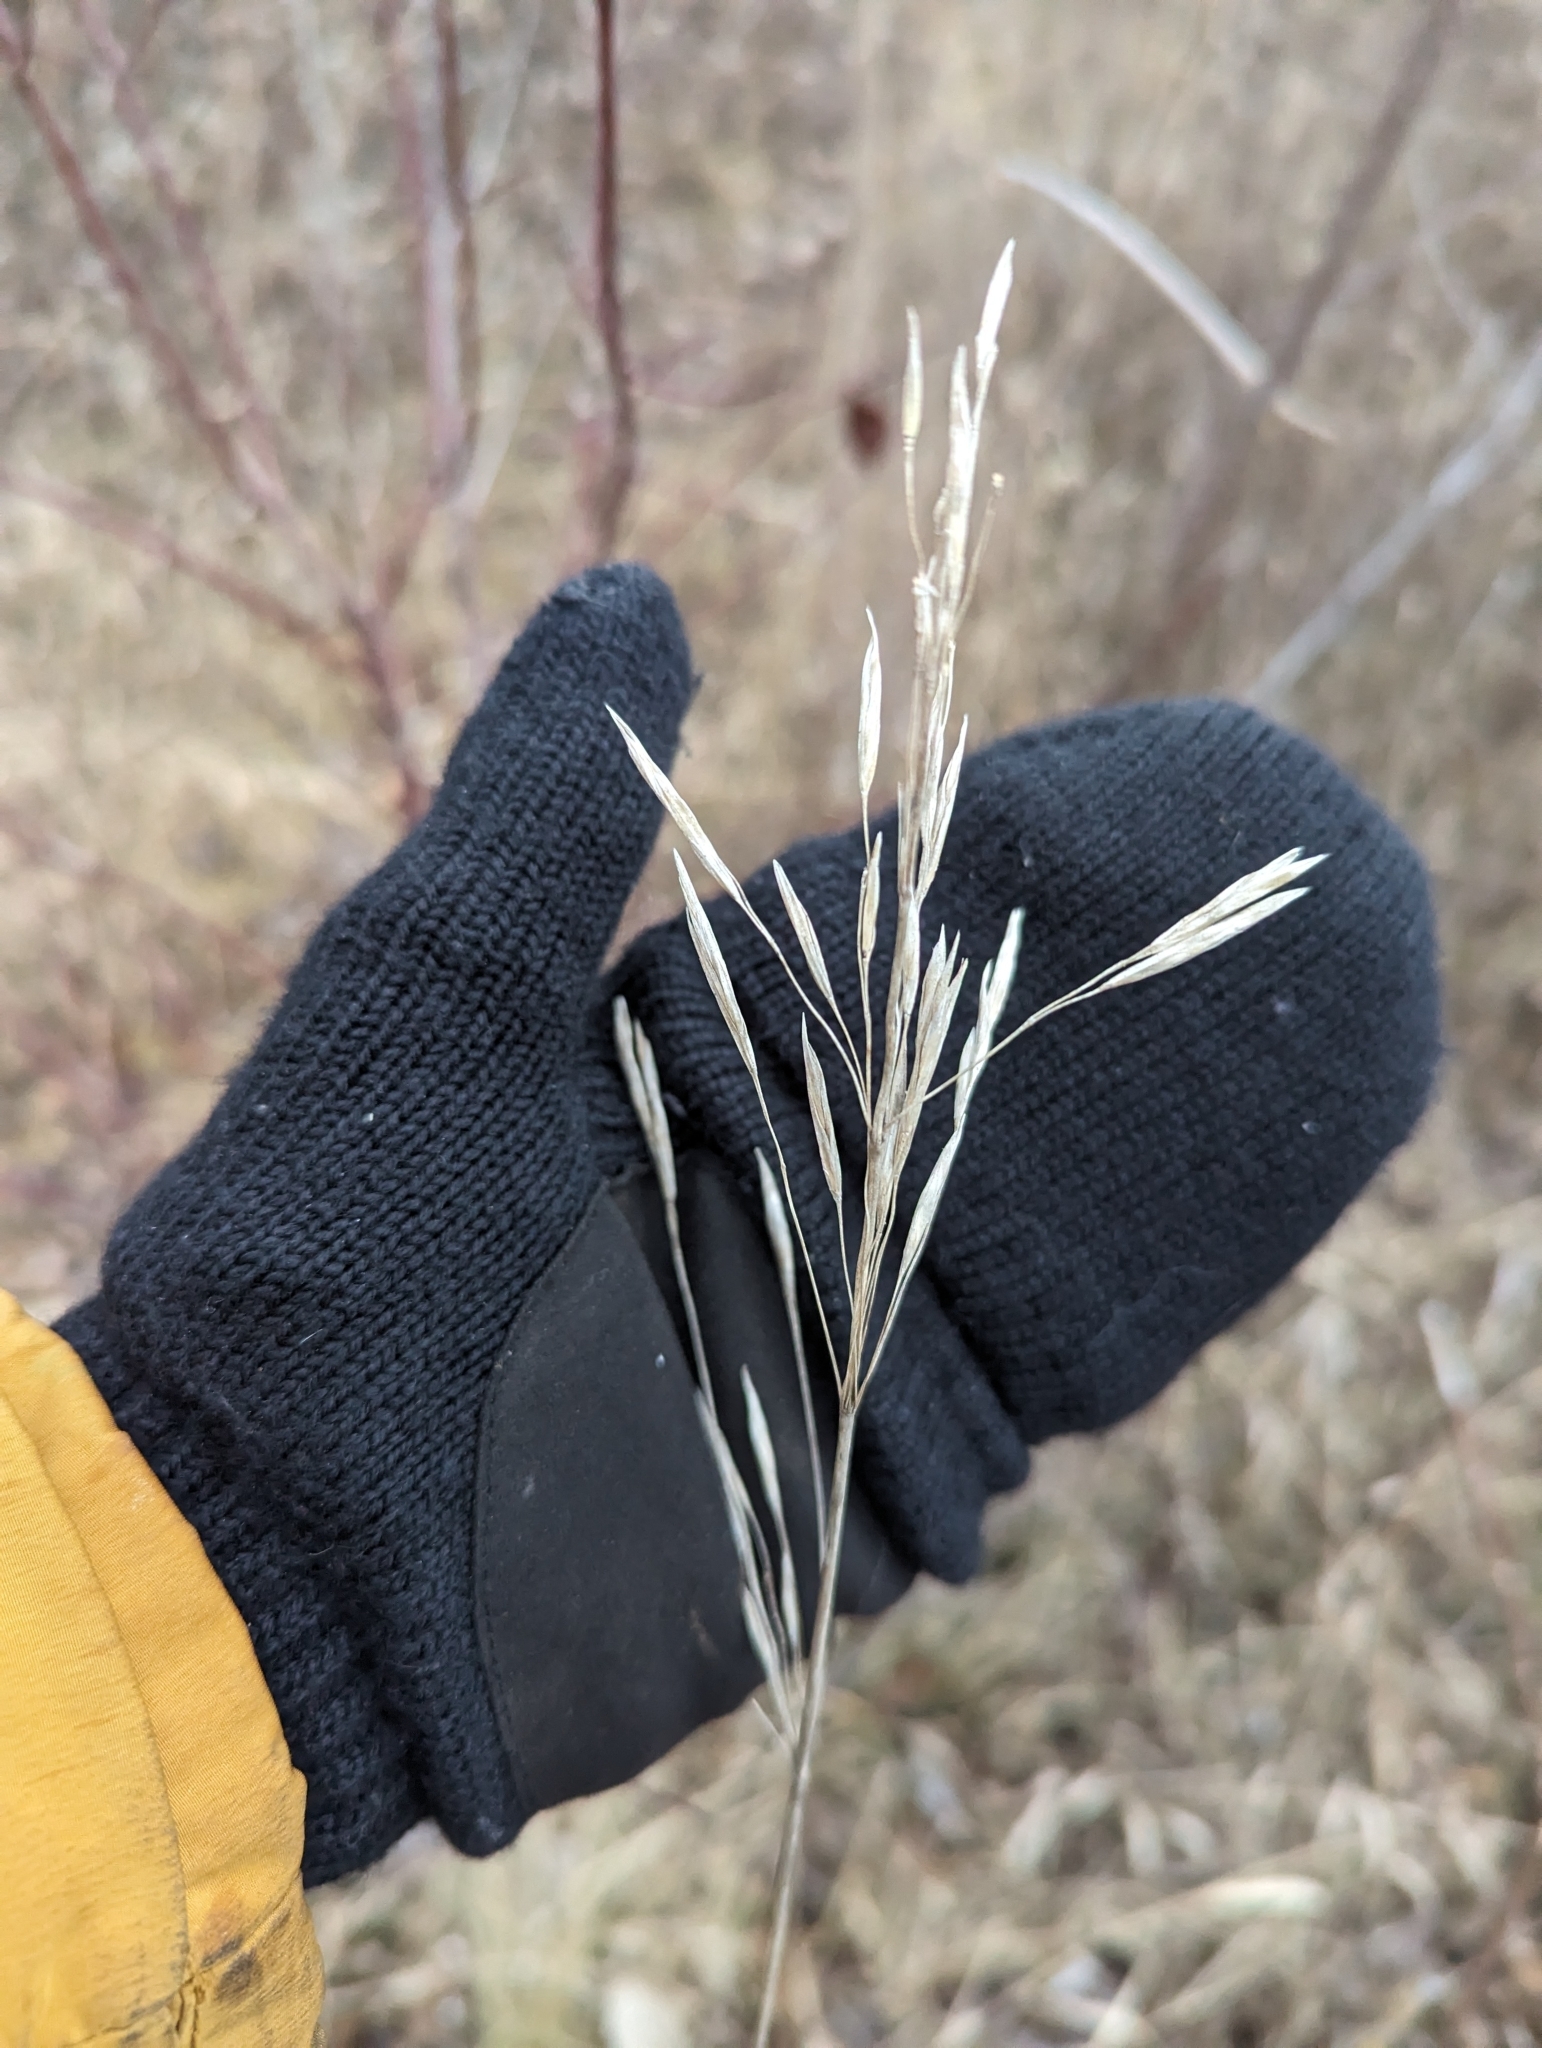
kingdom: Plantae
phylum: Tracheophyta
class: Liliopsida
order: Poales
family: Poaceae
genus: Bromus
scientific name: Bromus inermis
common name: Smooth brome
